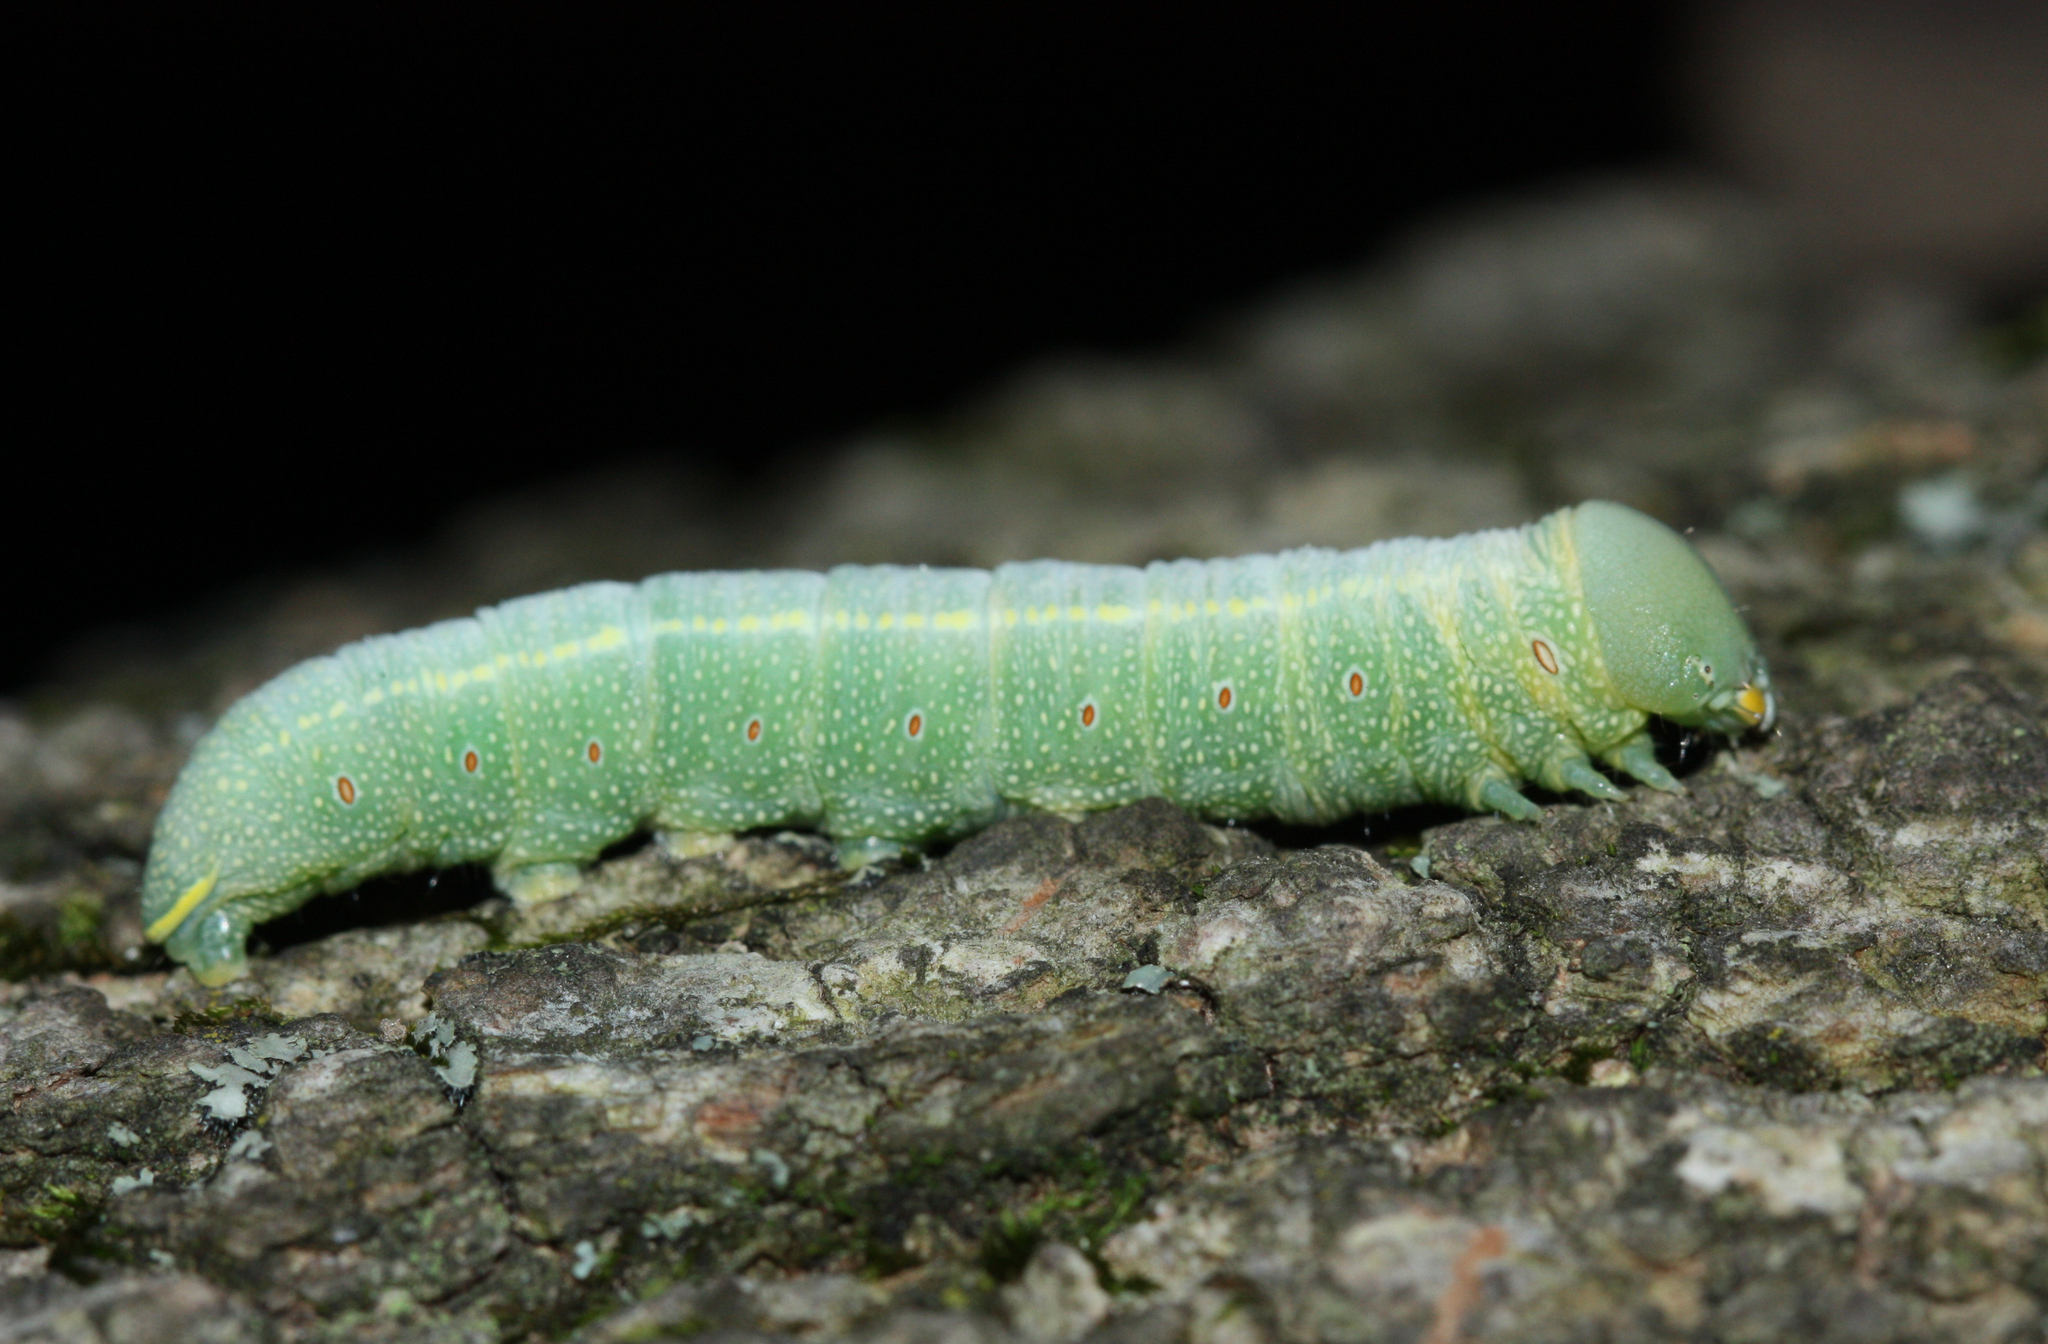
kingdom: Animalia
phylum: Arthropoda
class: Insecta
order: Lepidoptera
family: Notodontidae
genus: Nadata
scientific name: Nadata gibbosa
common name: White-dotted prominent
